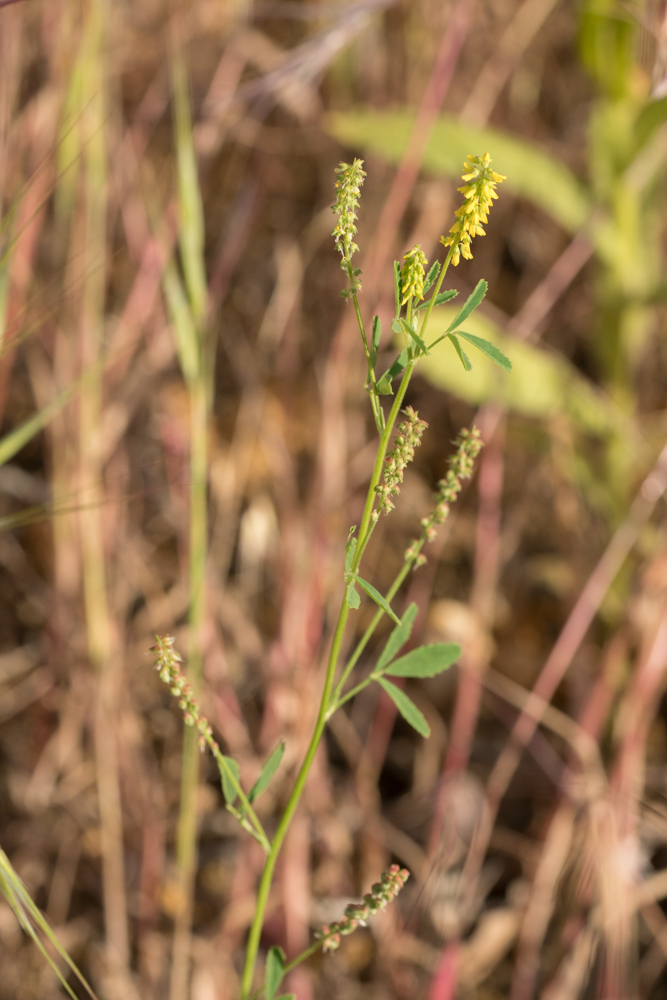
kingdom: Plantae
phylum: Tracheophyta
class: Magnoliopsida
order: Fabales
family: Fabaceae
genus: Melilotus
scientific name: Melilotus indicus
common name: Small melilot
